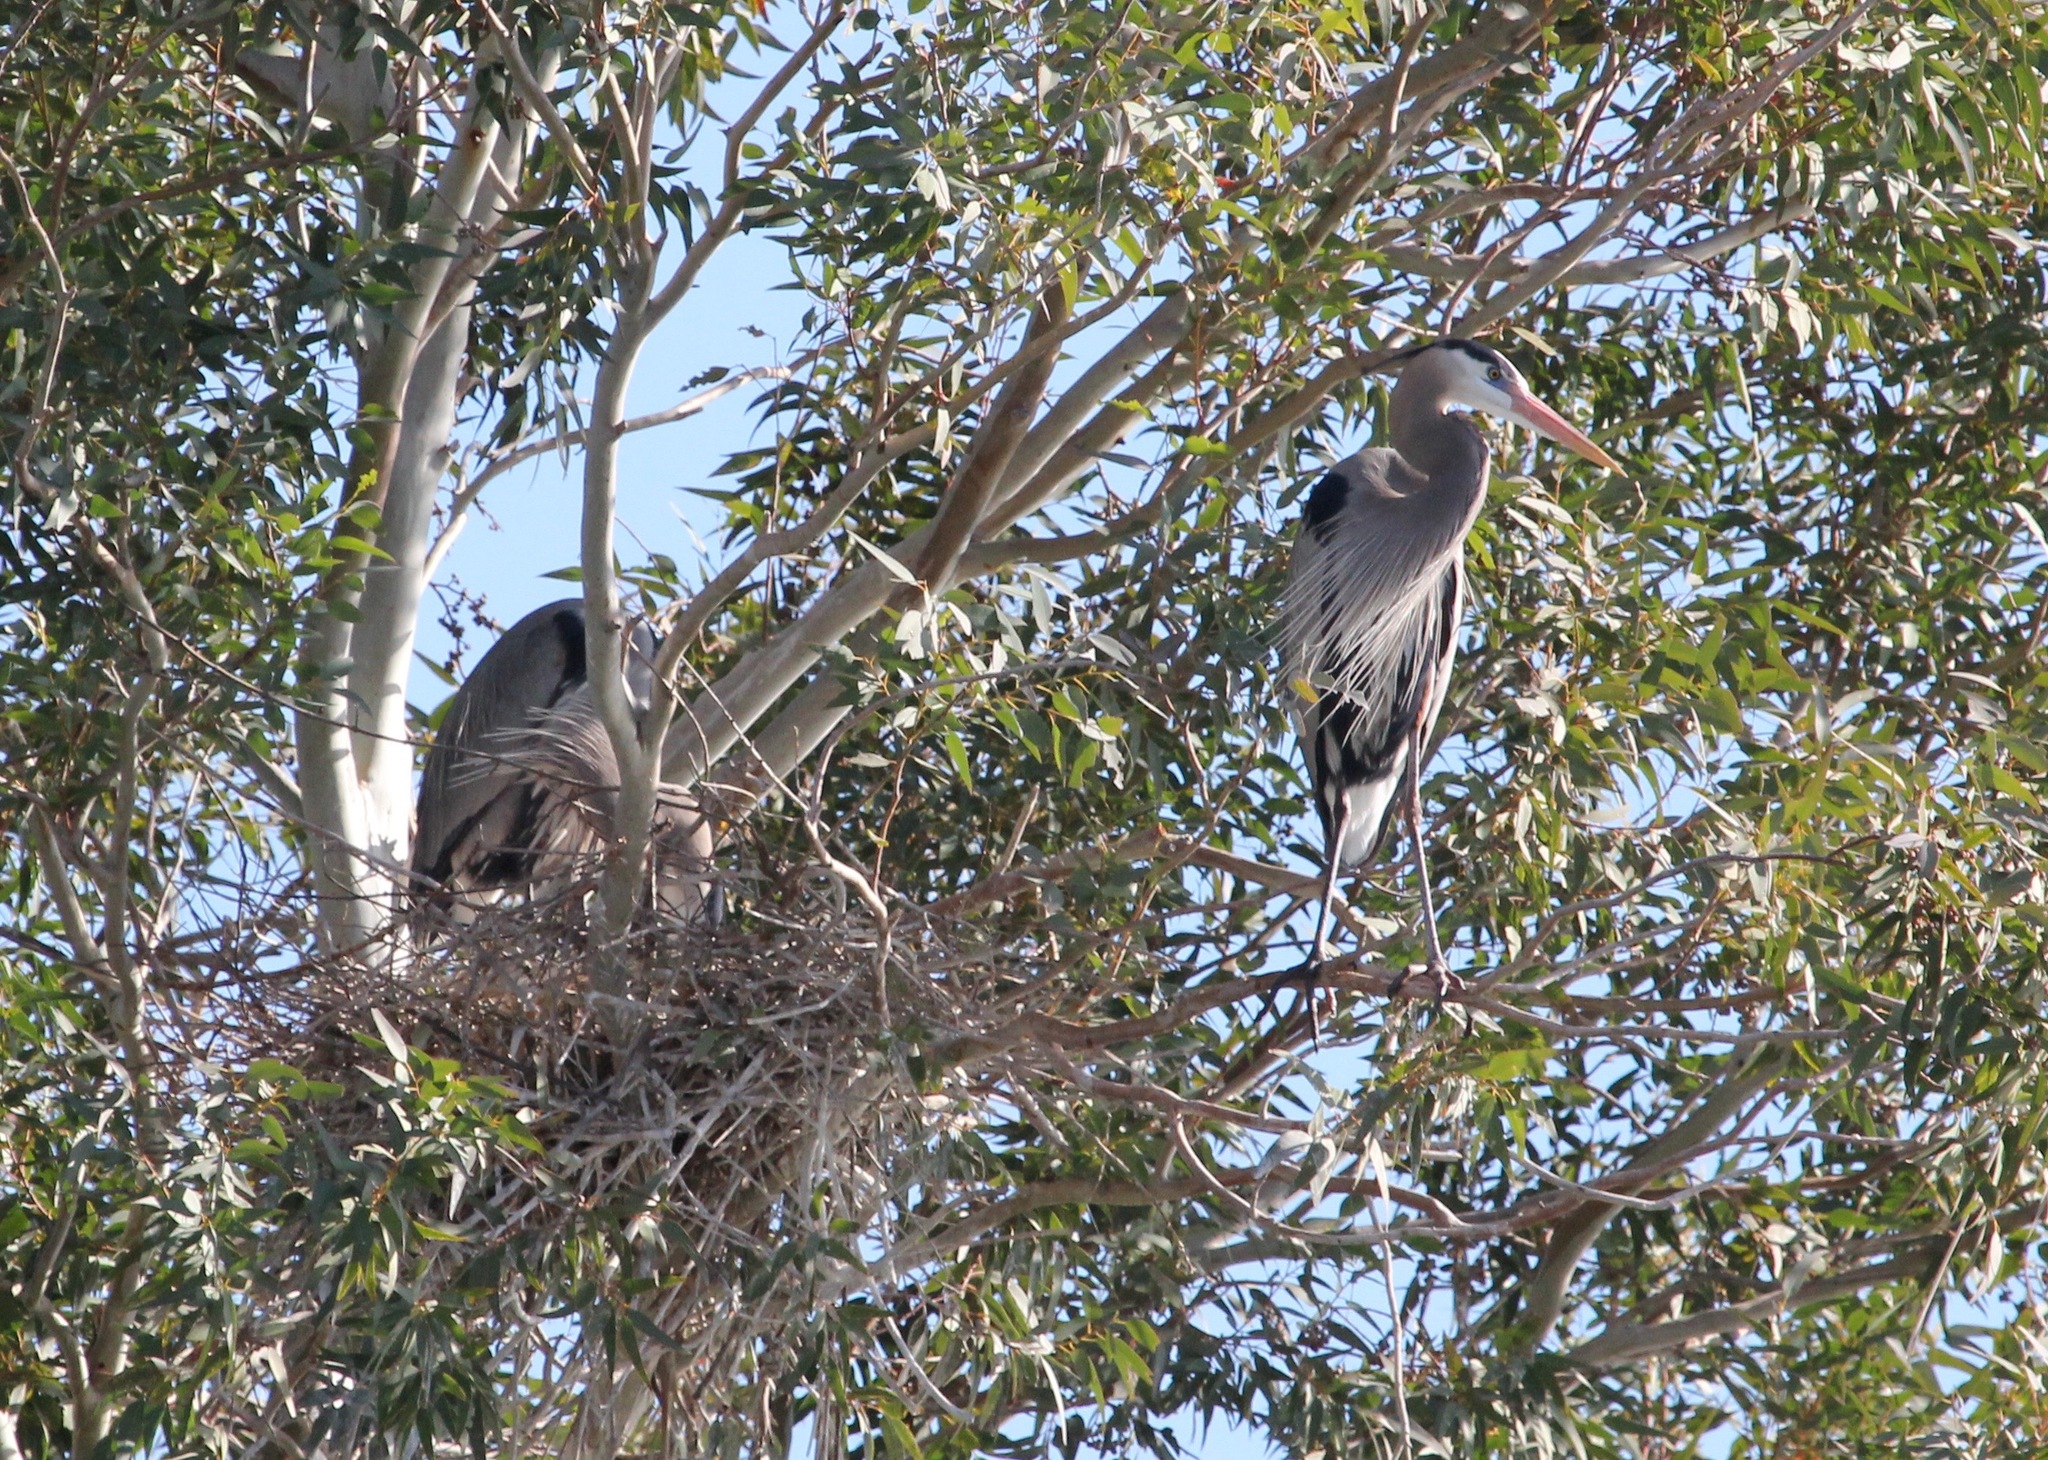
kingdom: Animalia
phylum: Chordata
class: Aves
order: Pelecaniformes
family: Ardeidae
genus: Ardea
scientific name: Ardea herodias
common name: Great blue heron
